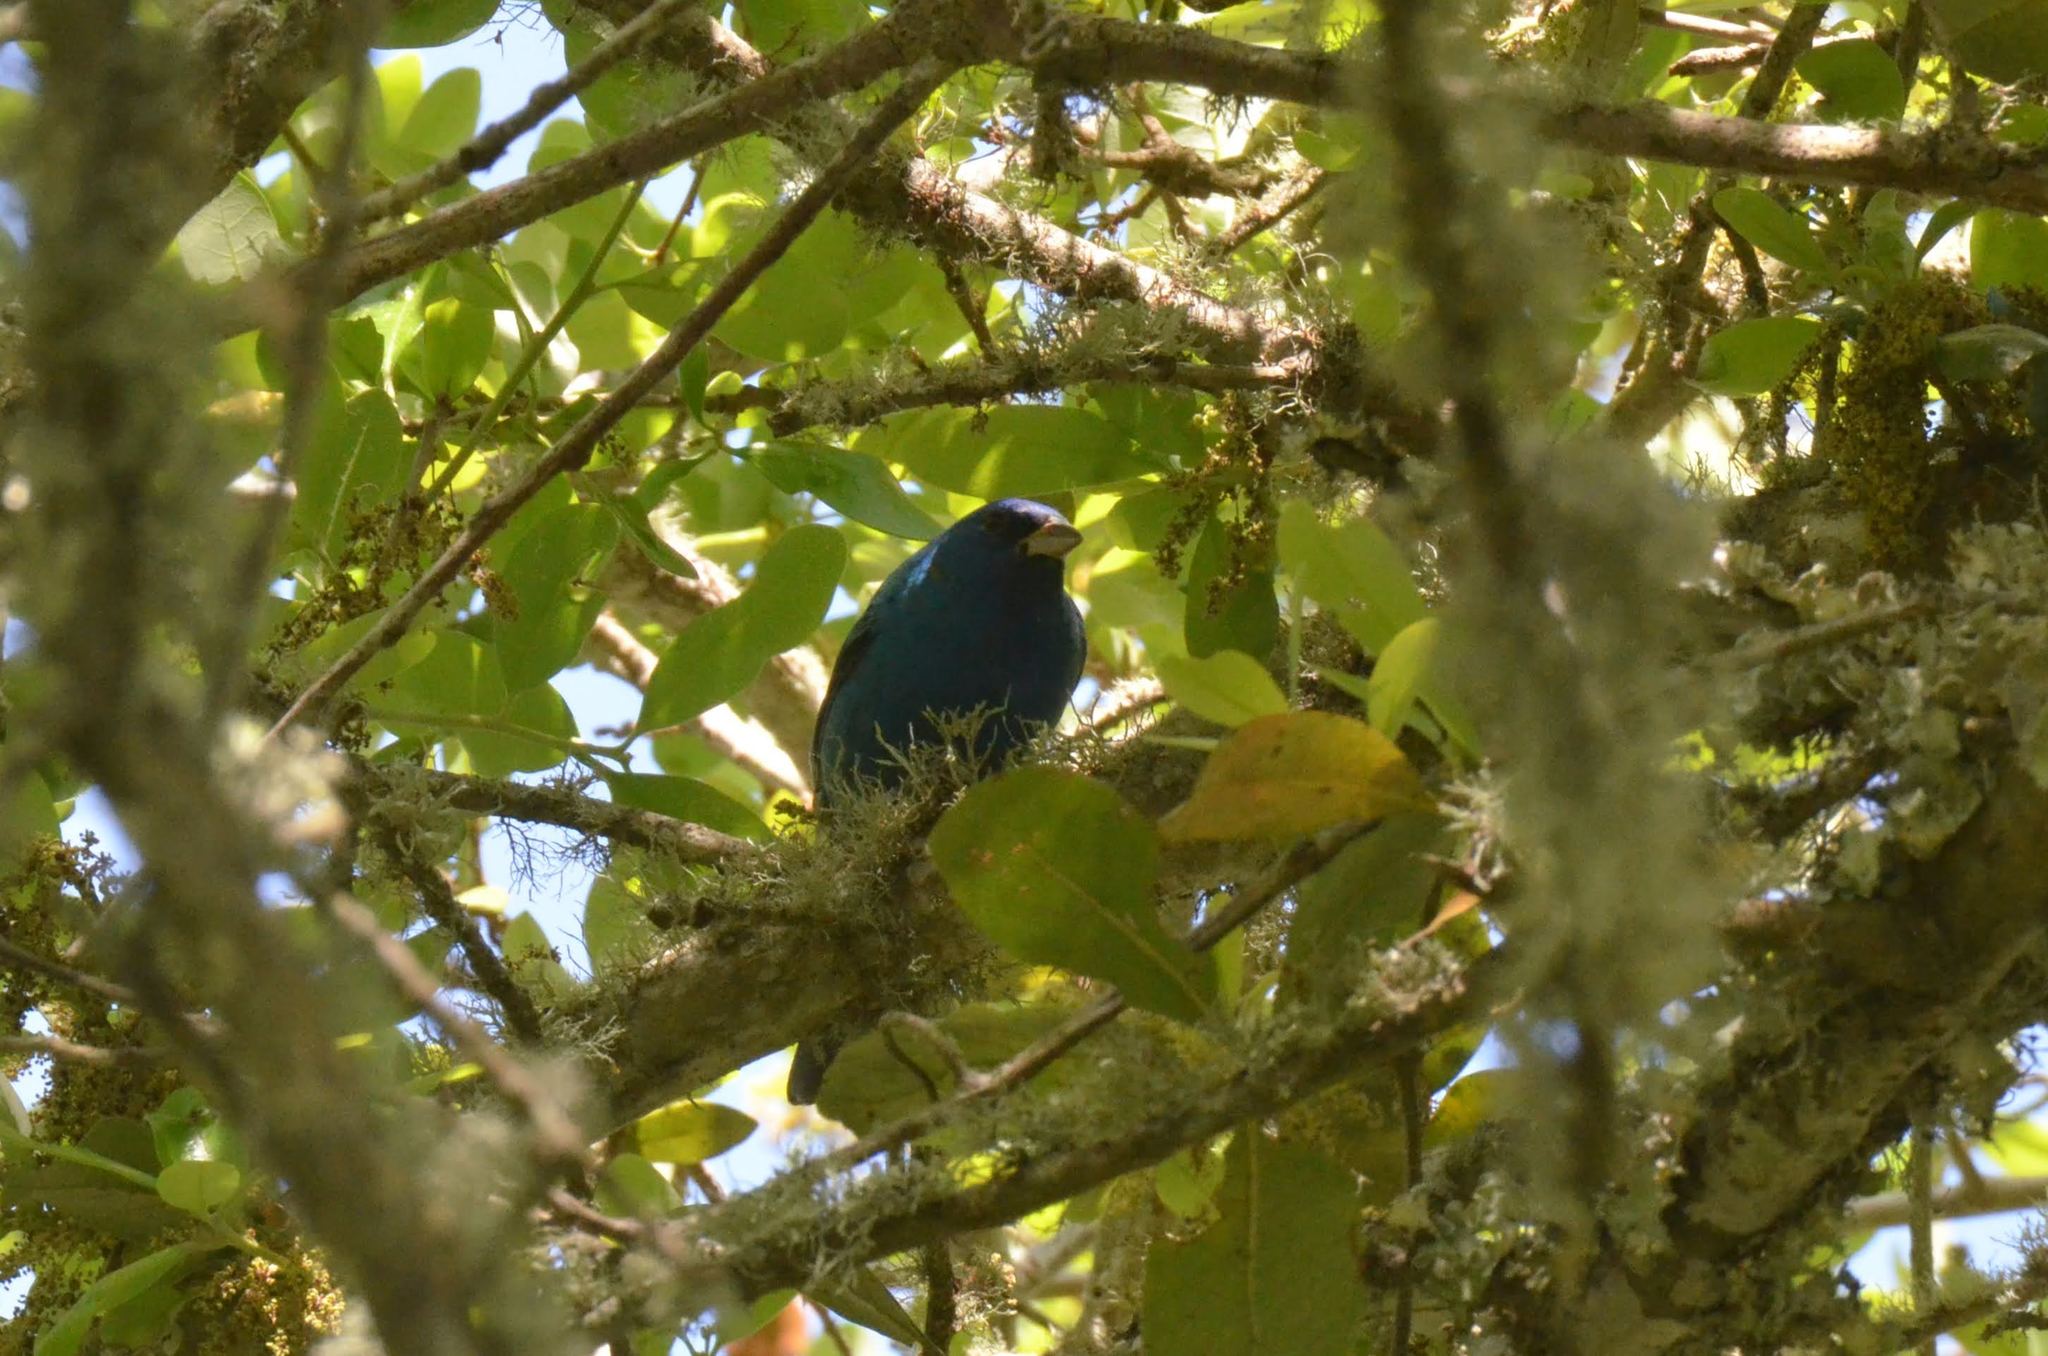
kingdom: Animalia
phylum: Chordata
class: Aves
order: Passeriformes
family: Cardinalidae
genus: Passerina
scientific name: Passerina cyanea
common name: Indigo bunting
